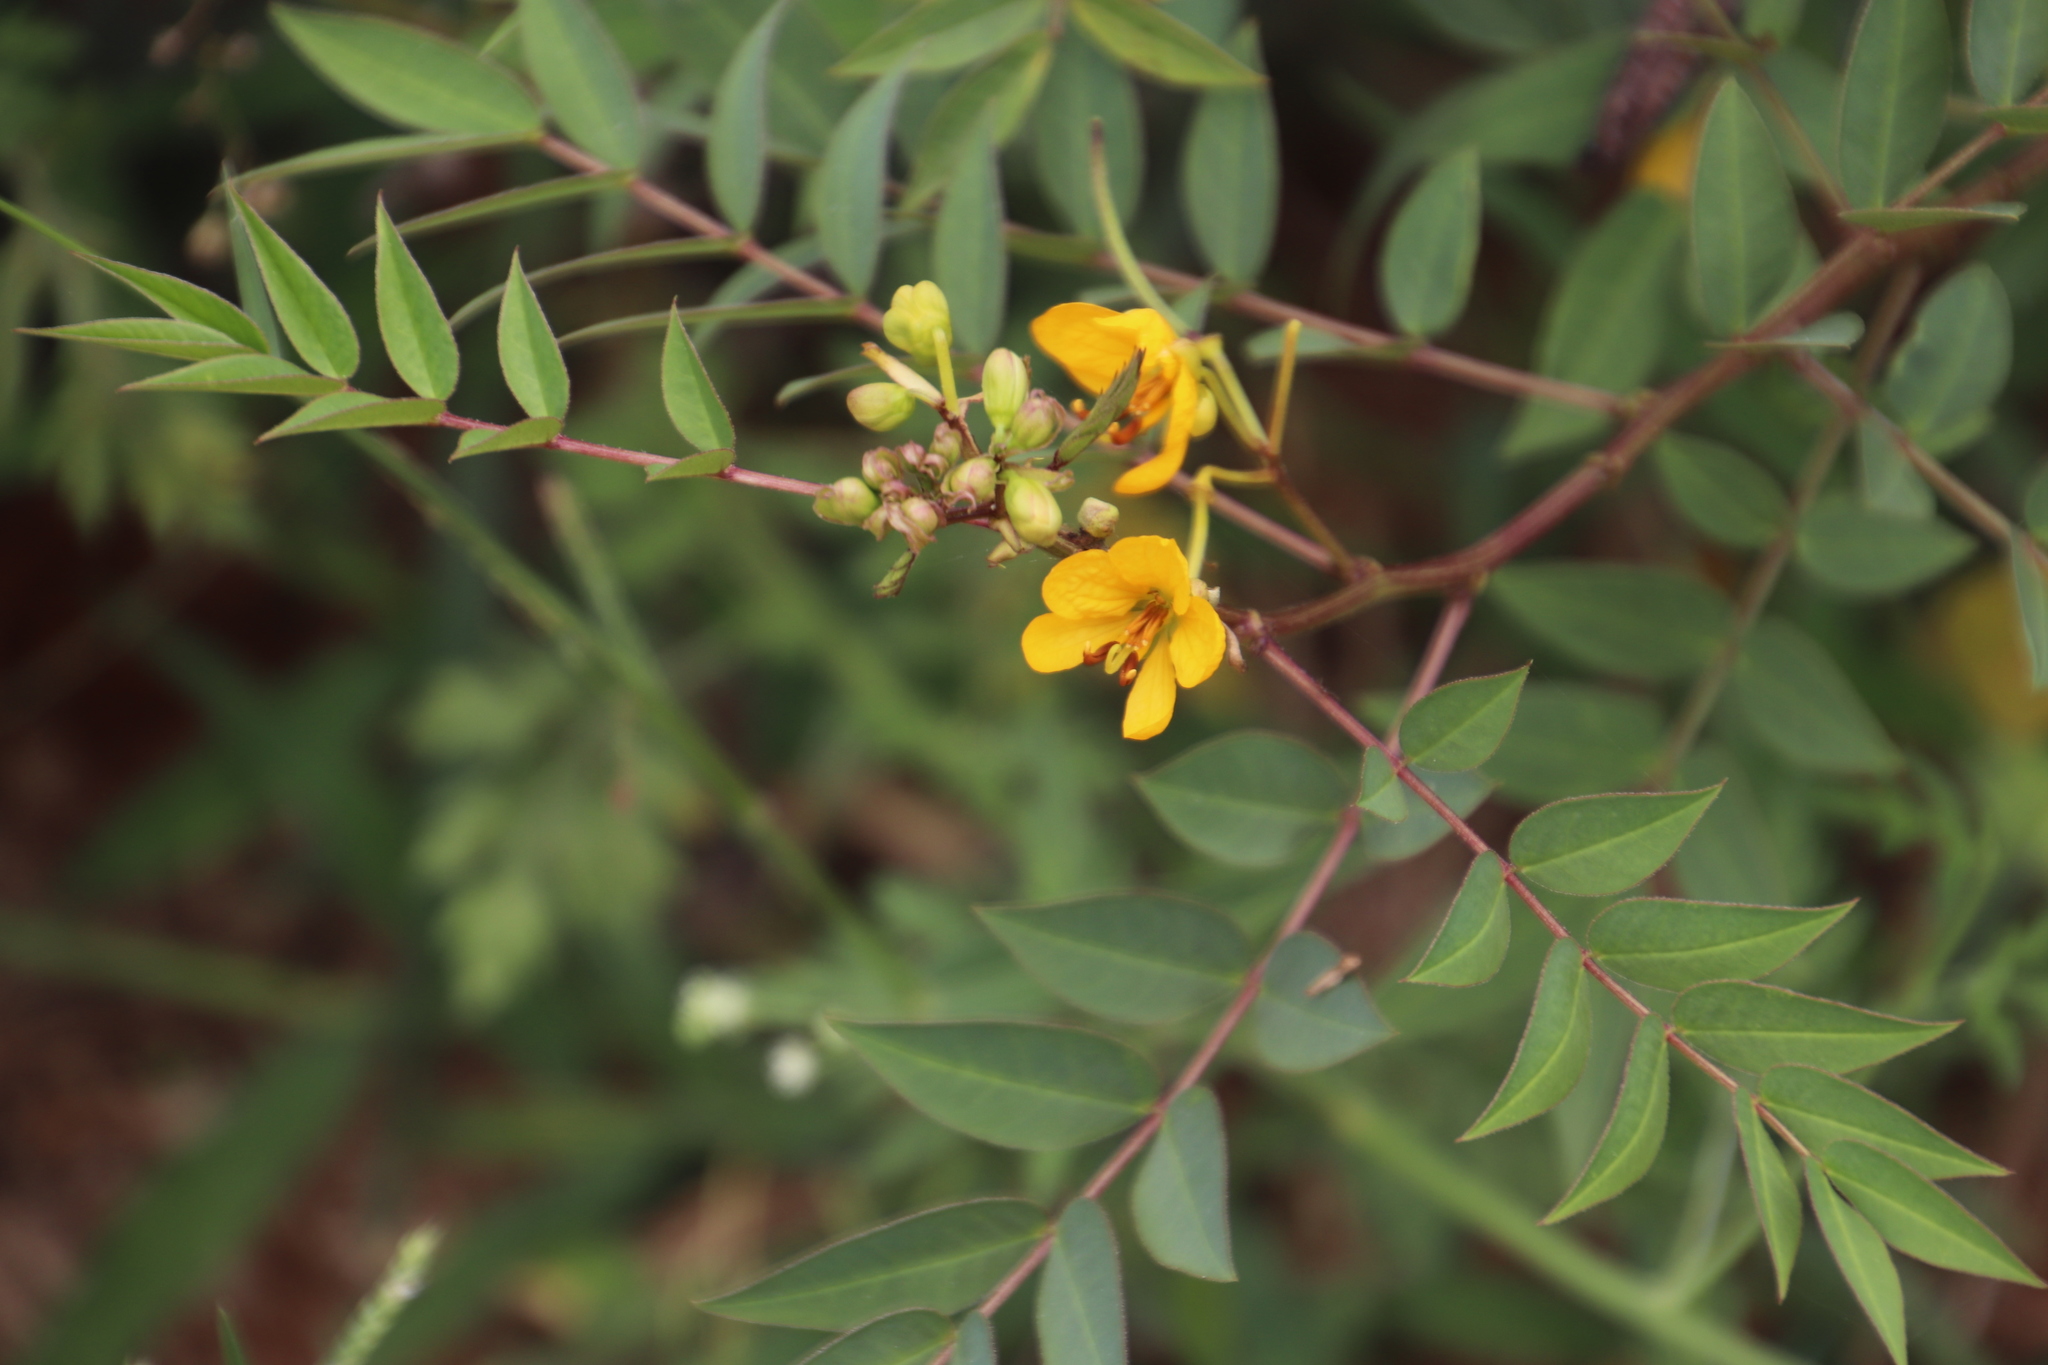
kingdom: Plantae
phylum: Tracheophyta
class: Magnoliopsida
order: Fabales
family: Fabaceae
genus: Senna
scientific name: Senna occidentalis
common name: Septicweed
